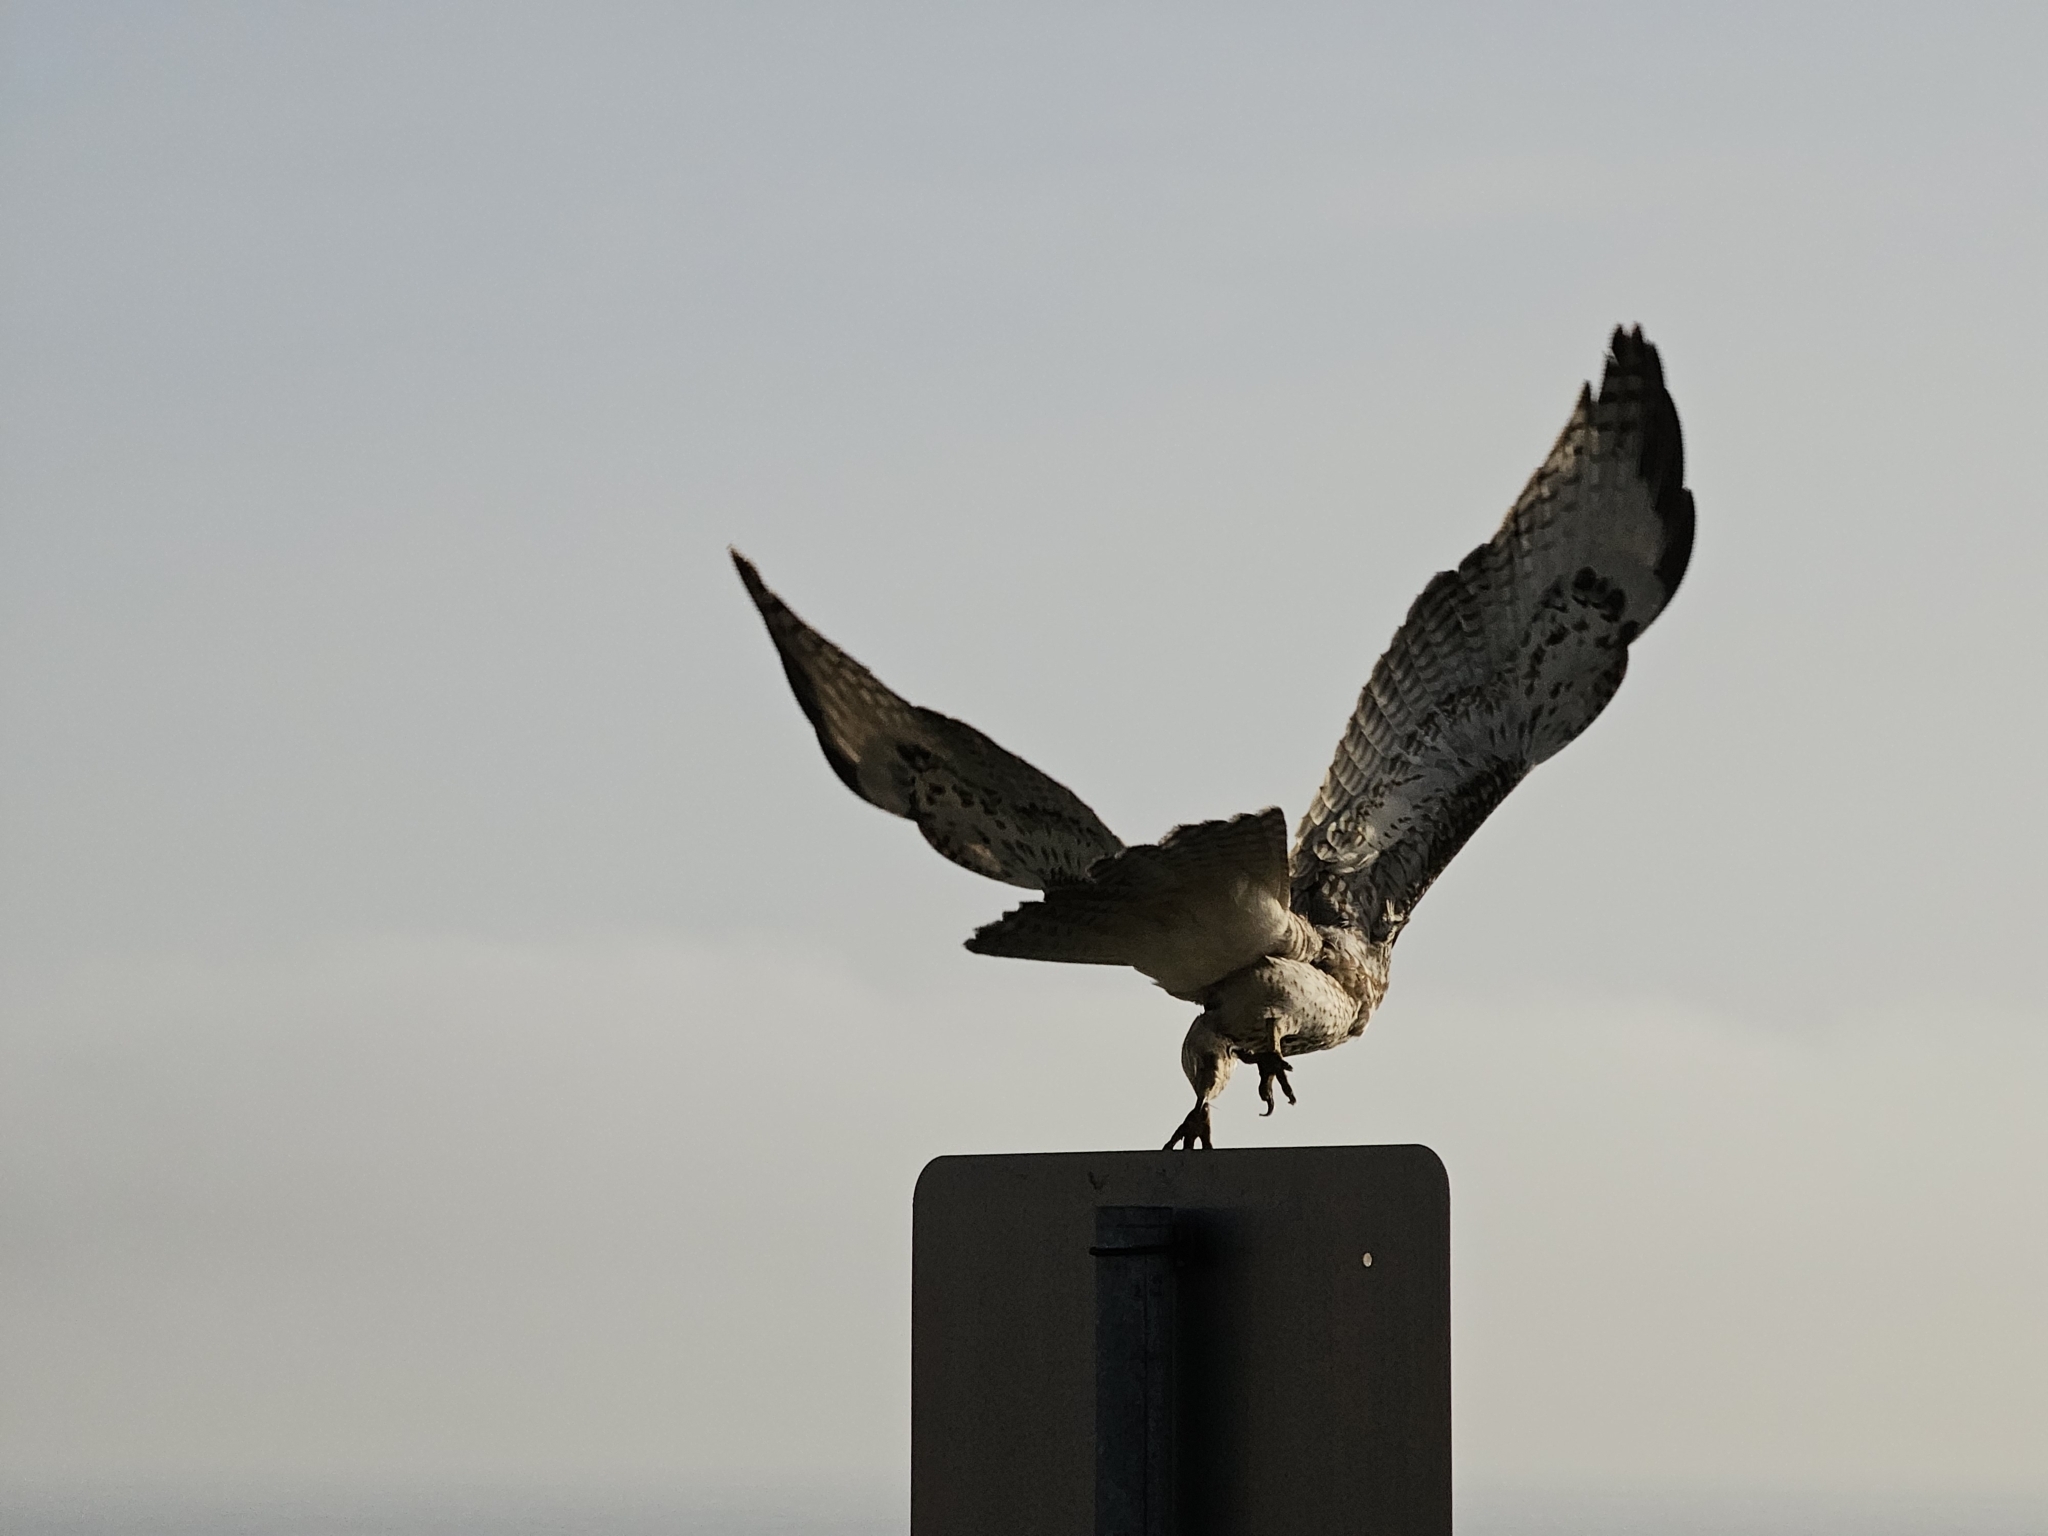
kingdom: Animalia
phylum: Chordata
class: Aves
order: Accipitriformes
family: Accipitridae
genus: Buteo
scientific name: Buteo jamaicensis
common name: Red-tailed hawk
